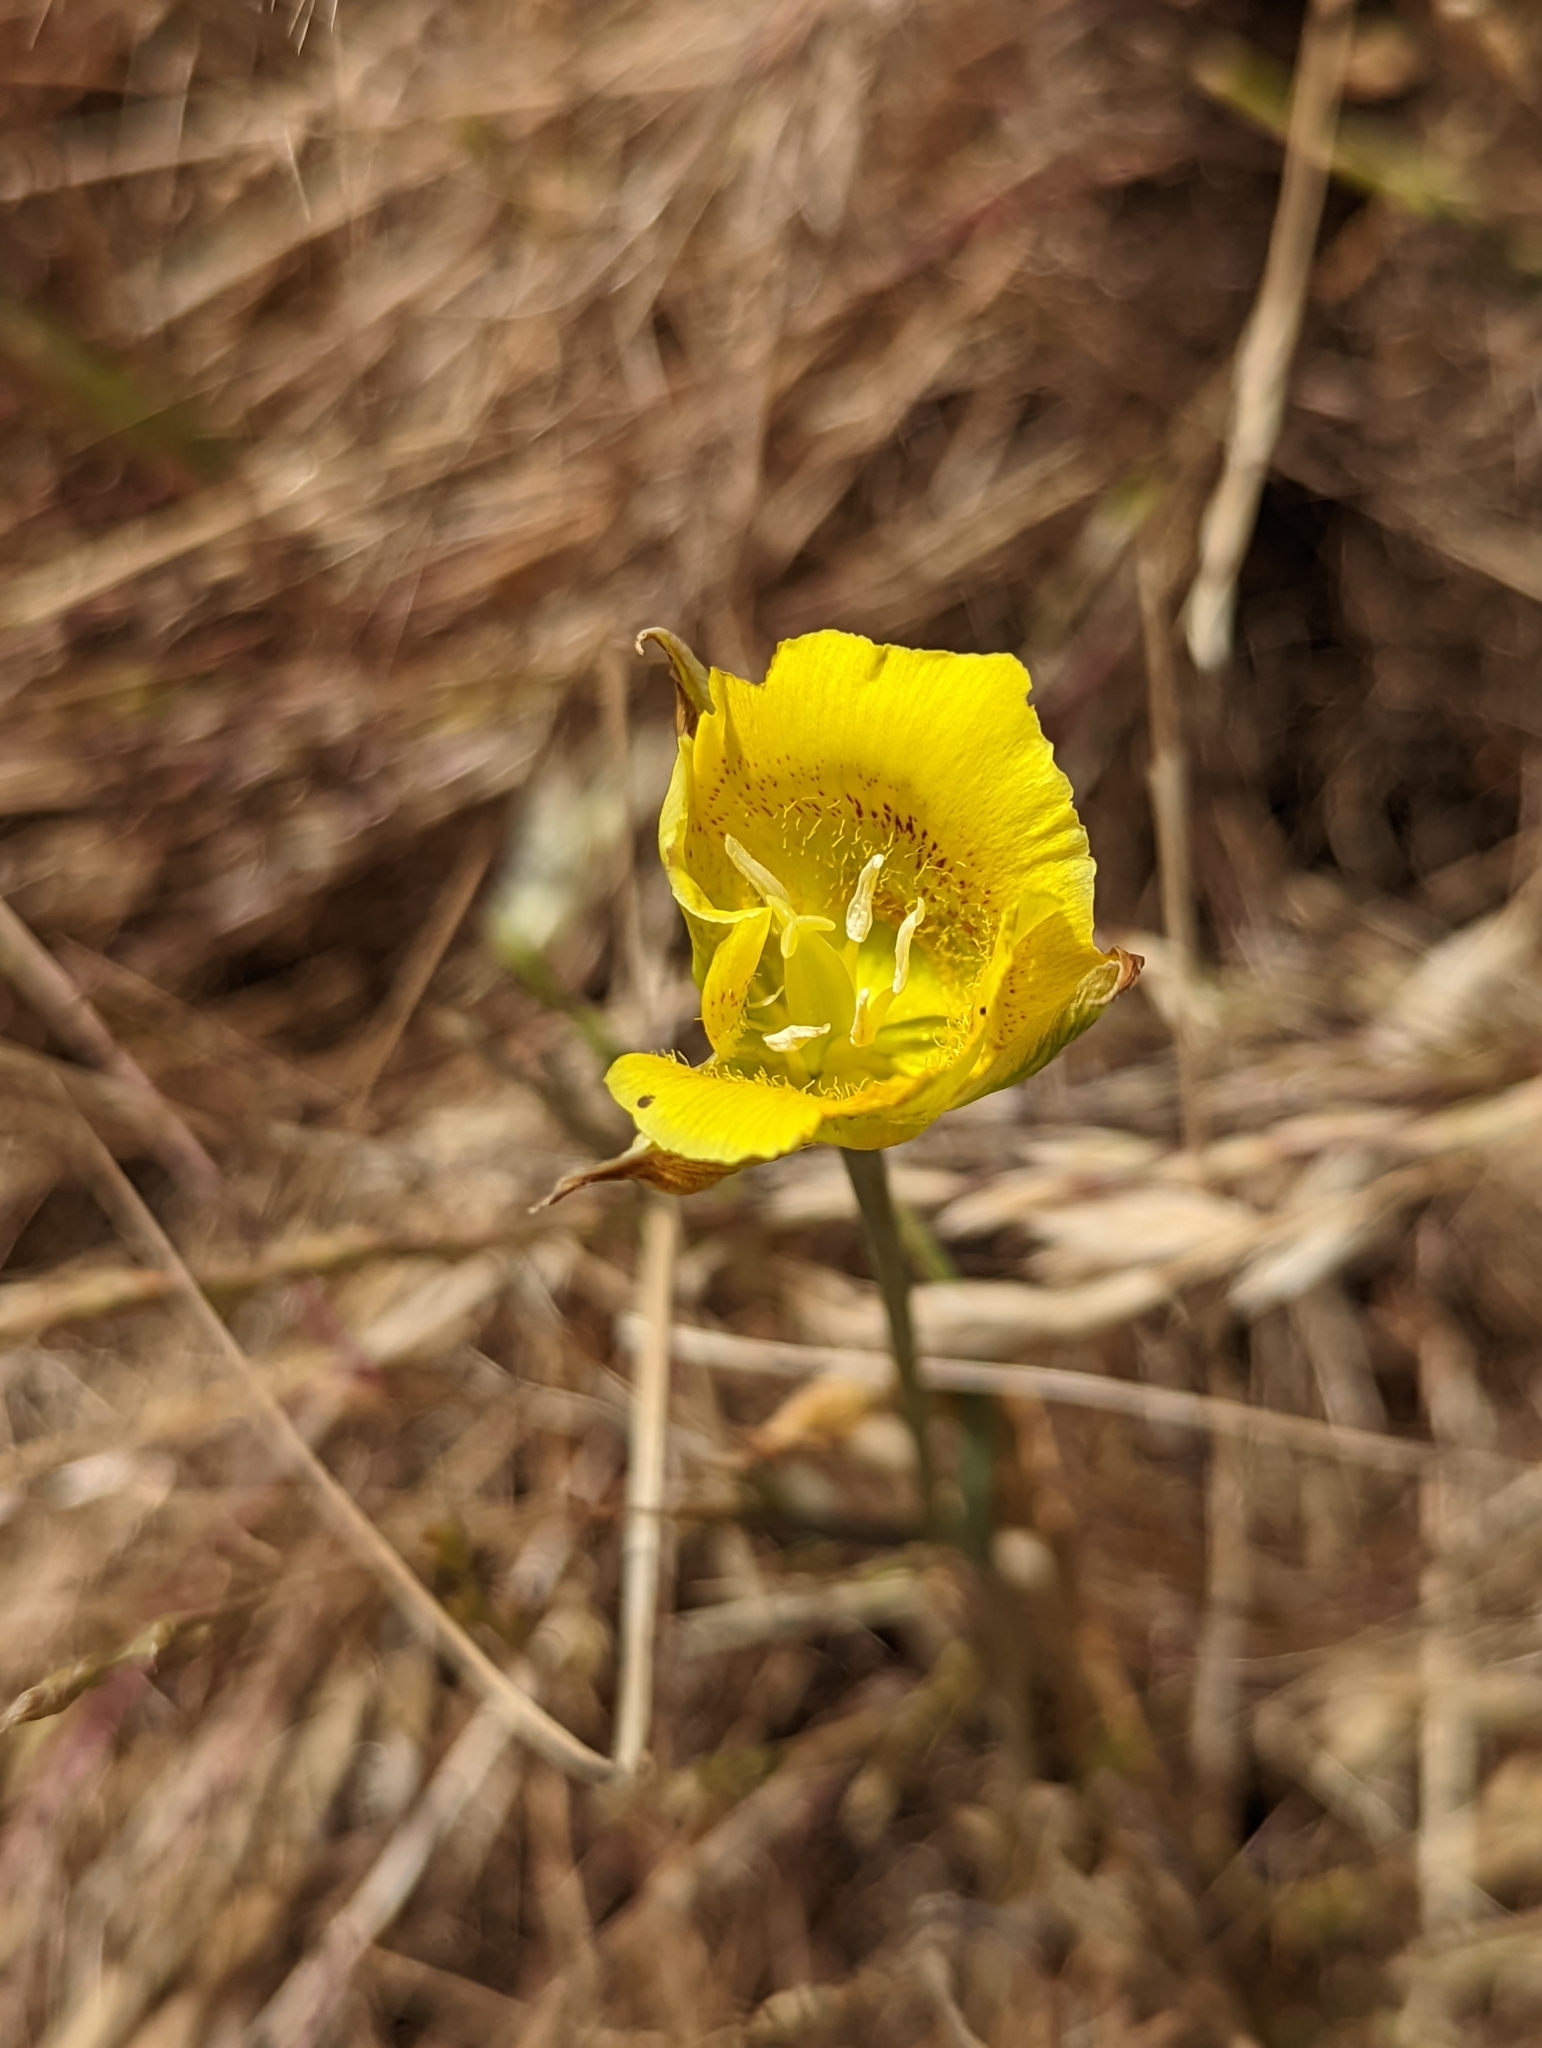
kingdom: Plantae
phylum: Tracheophyta
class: Liliopsida
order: Liliales
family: Liliaceae
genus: Calochortus
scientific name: Calochortus luteus
